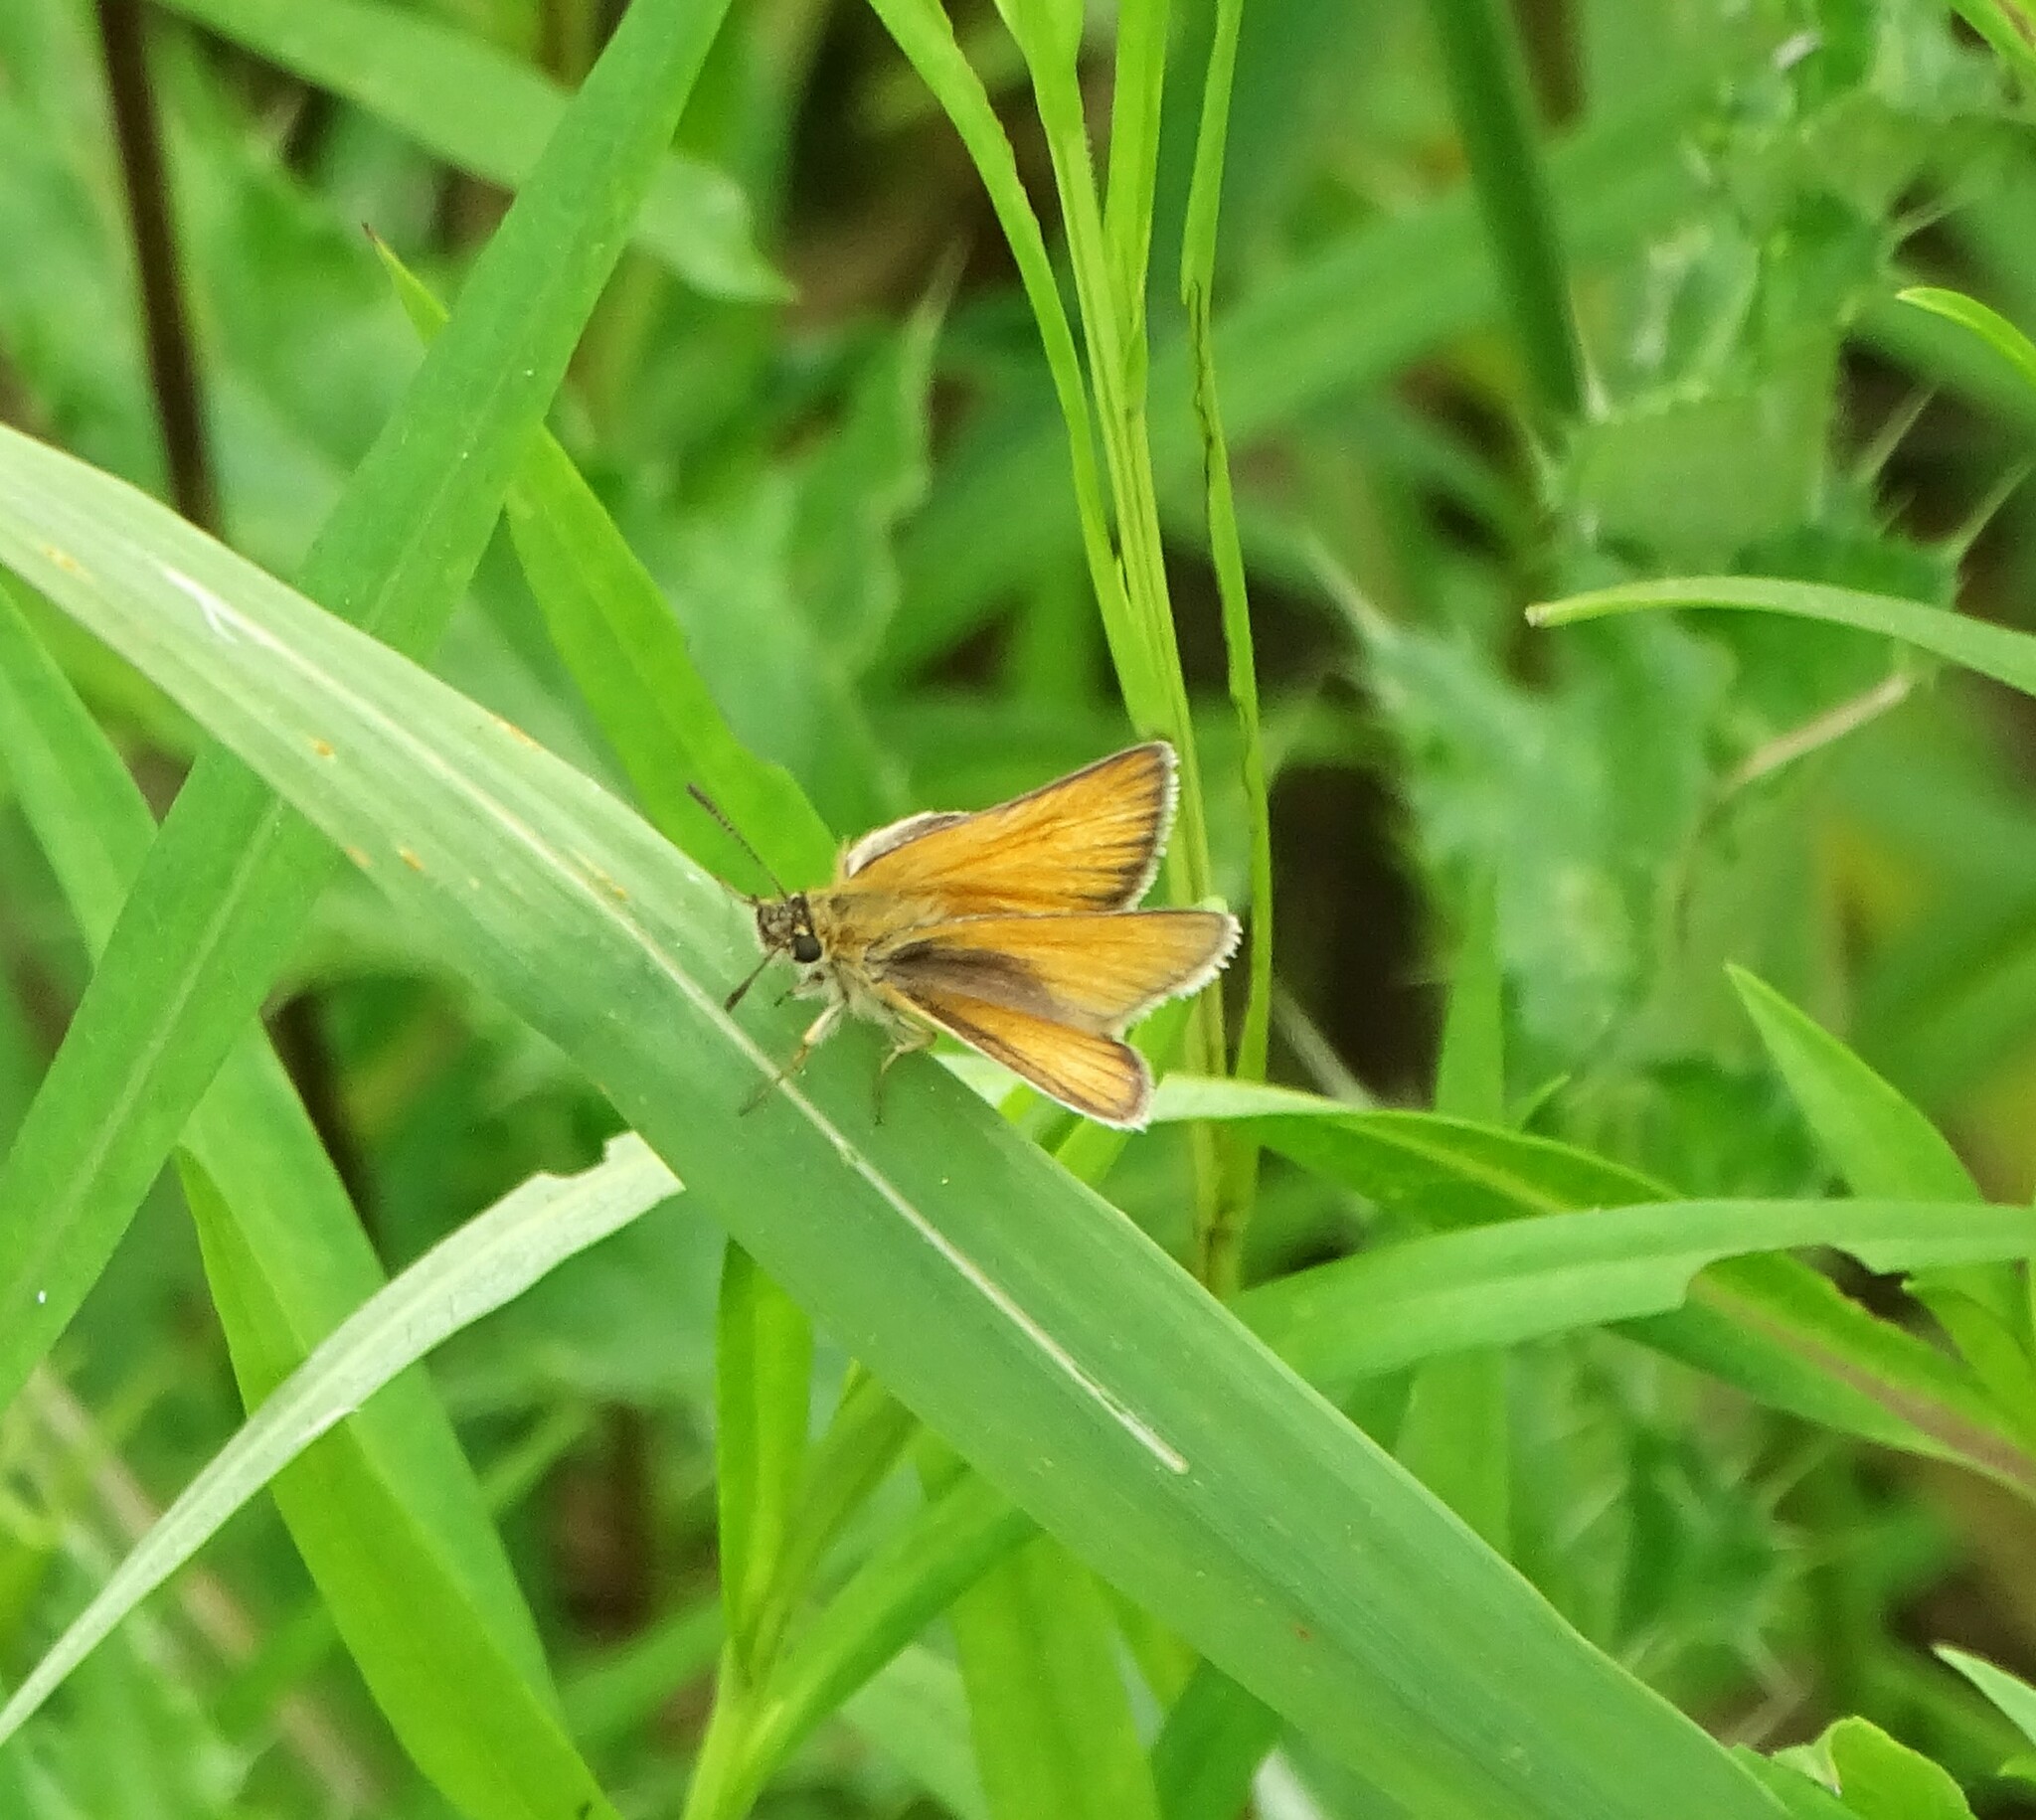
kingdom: Animalia
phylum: Arthropoda
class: Insecta
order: Lepidoptera
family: Hesperiidae
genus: Thymelicus
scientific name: Thymelicus lineola
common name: Essex skipper
